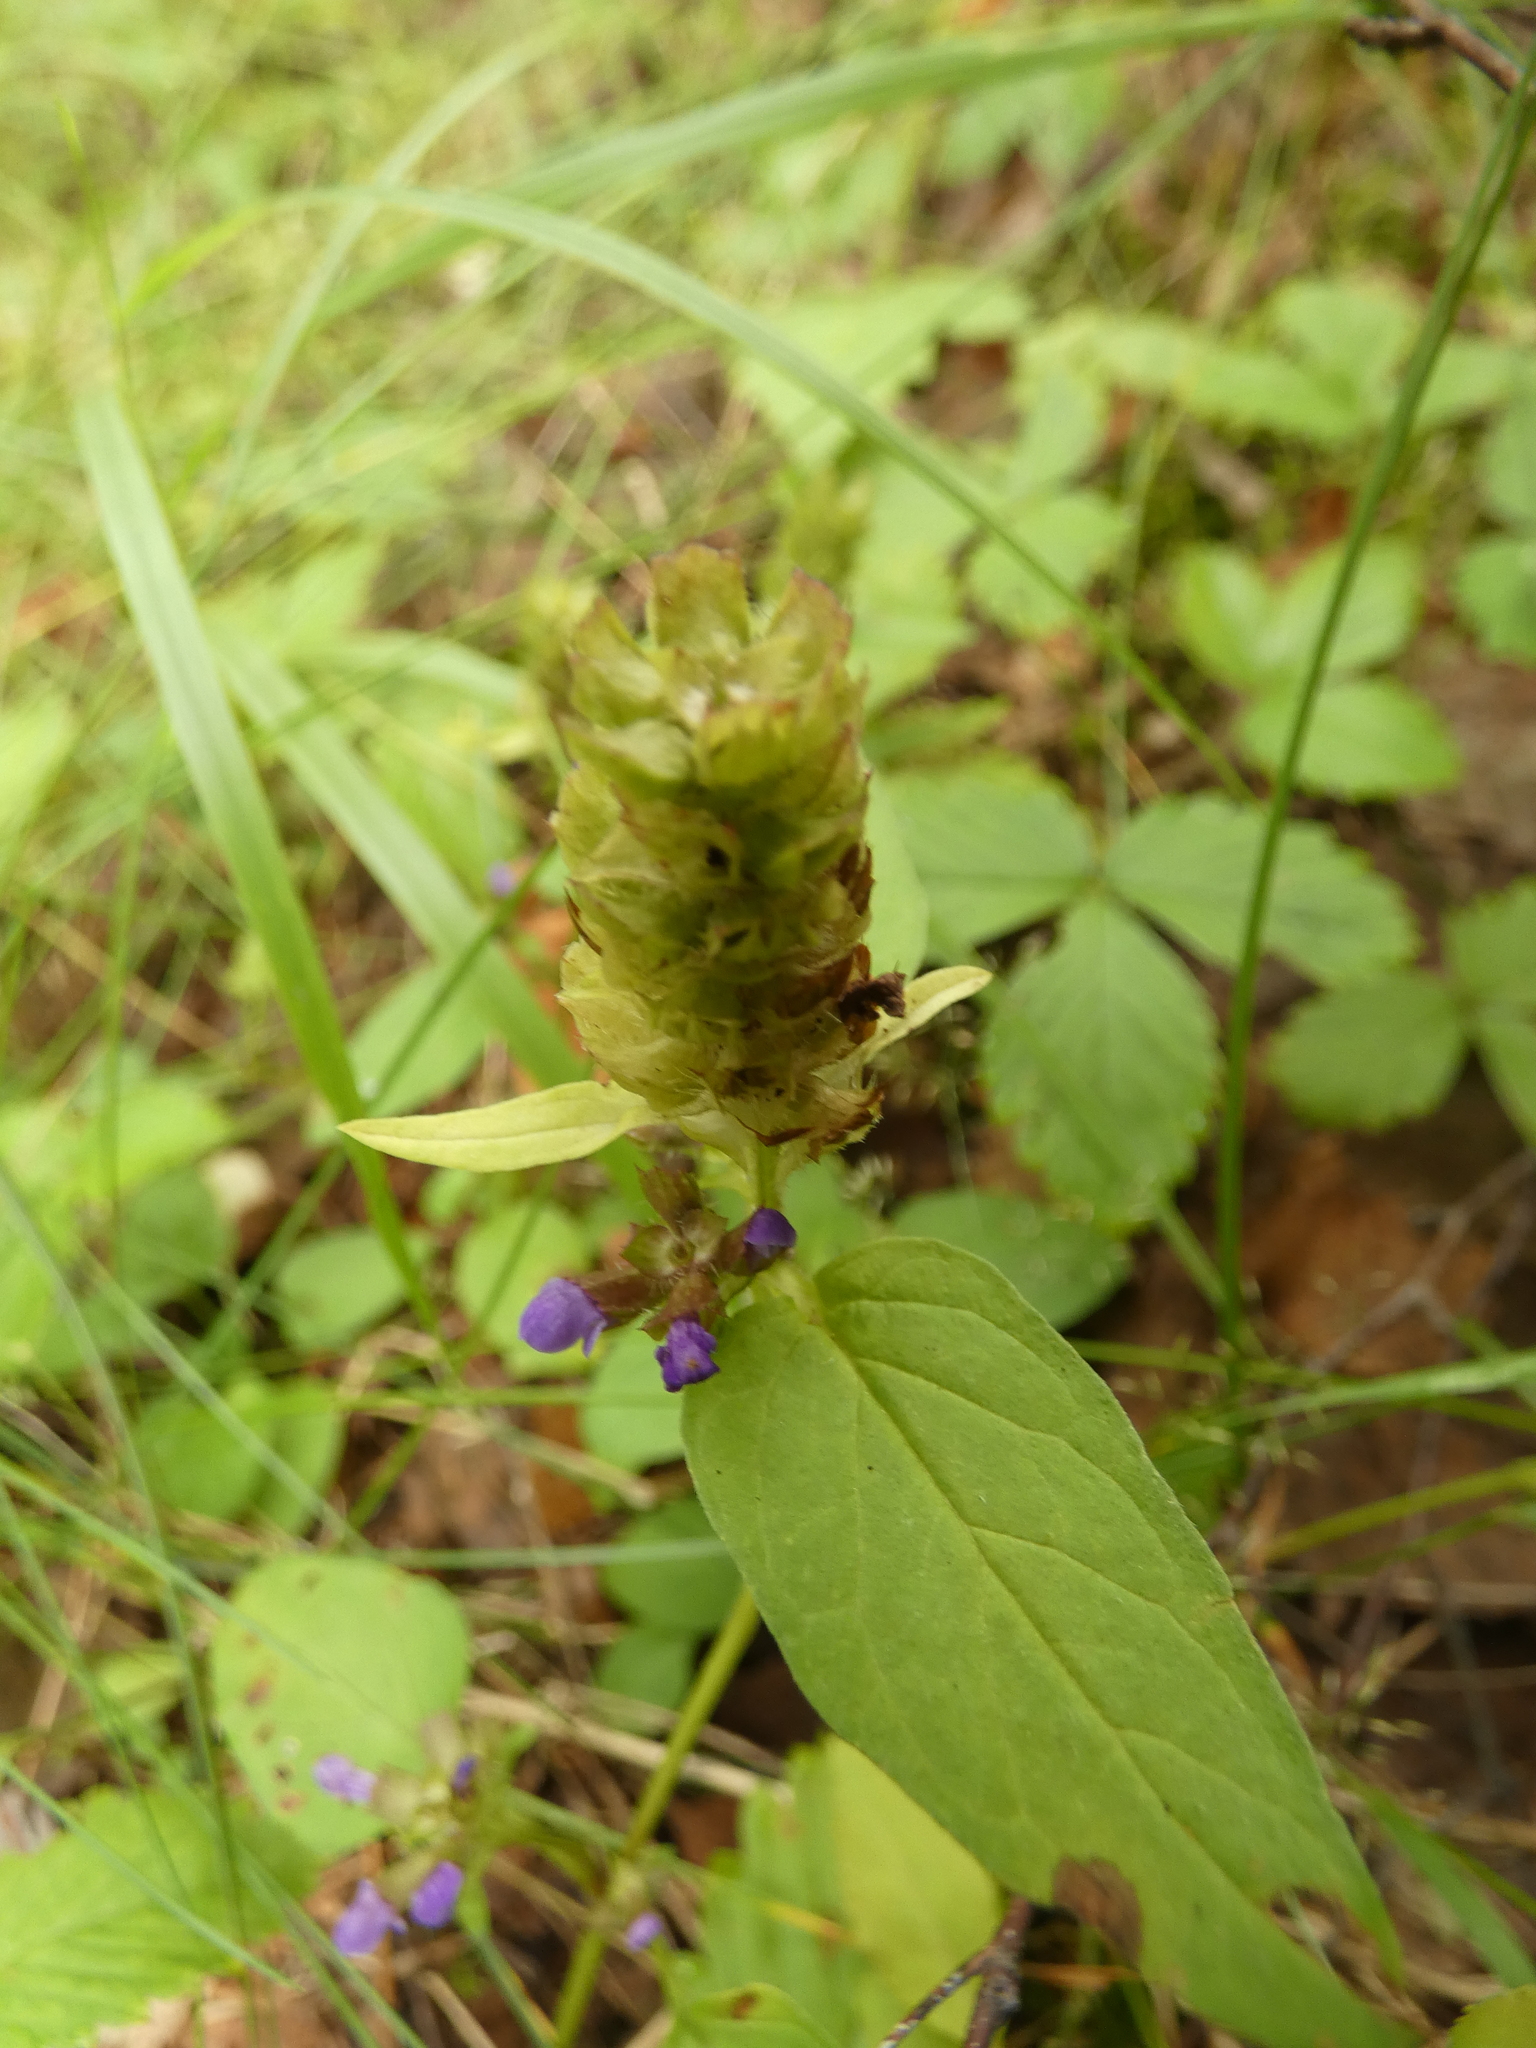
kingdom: Plantae
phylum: Tracheophyta
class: Magnoliopsida
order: Lamiales
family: Lamiaceae
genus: Prunella
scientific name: Prunella vulgaris
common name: Heal-all
